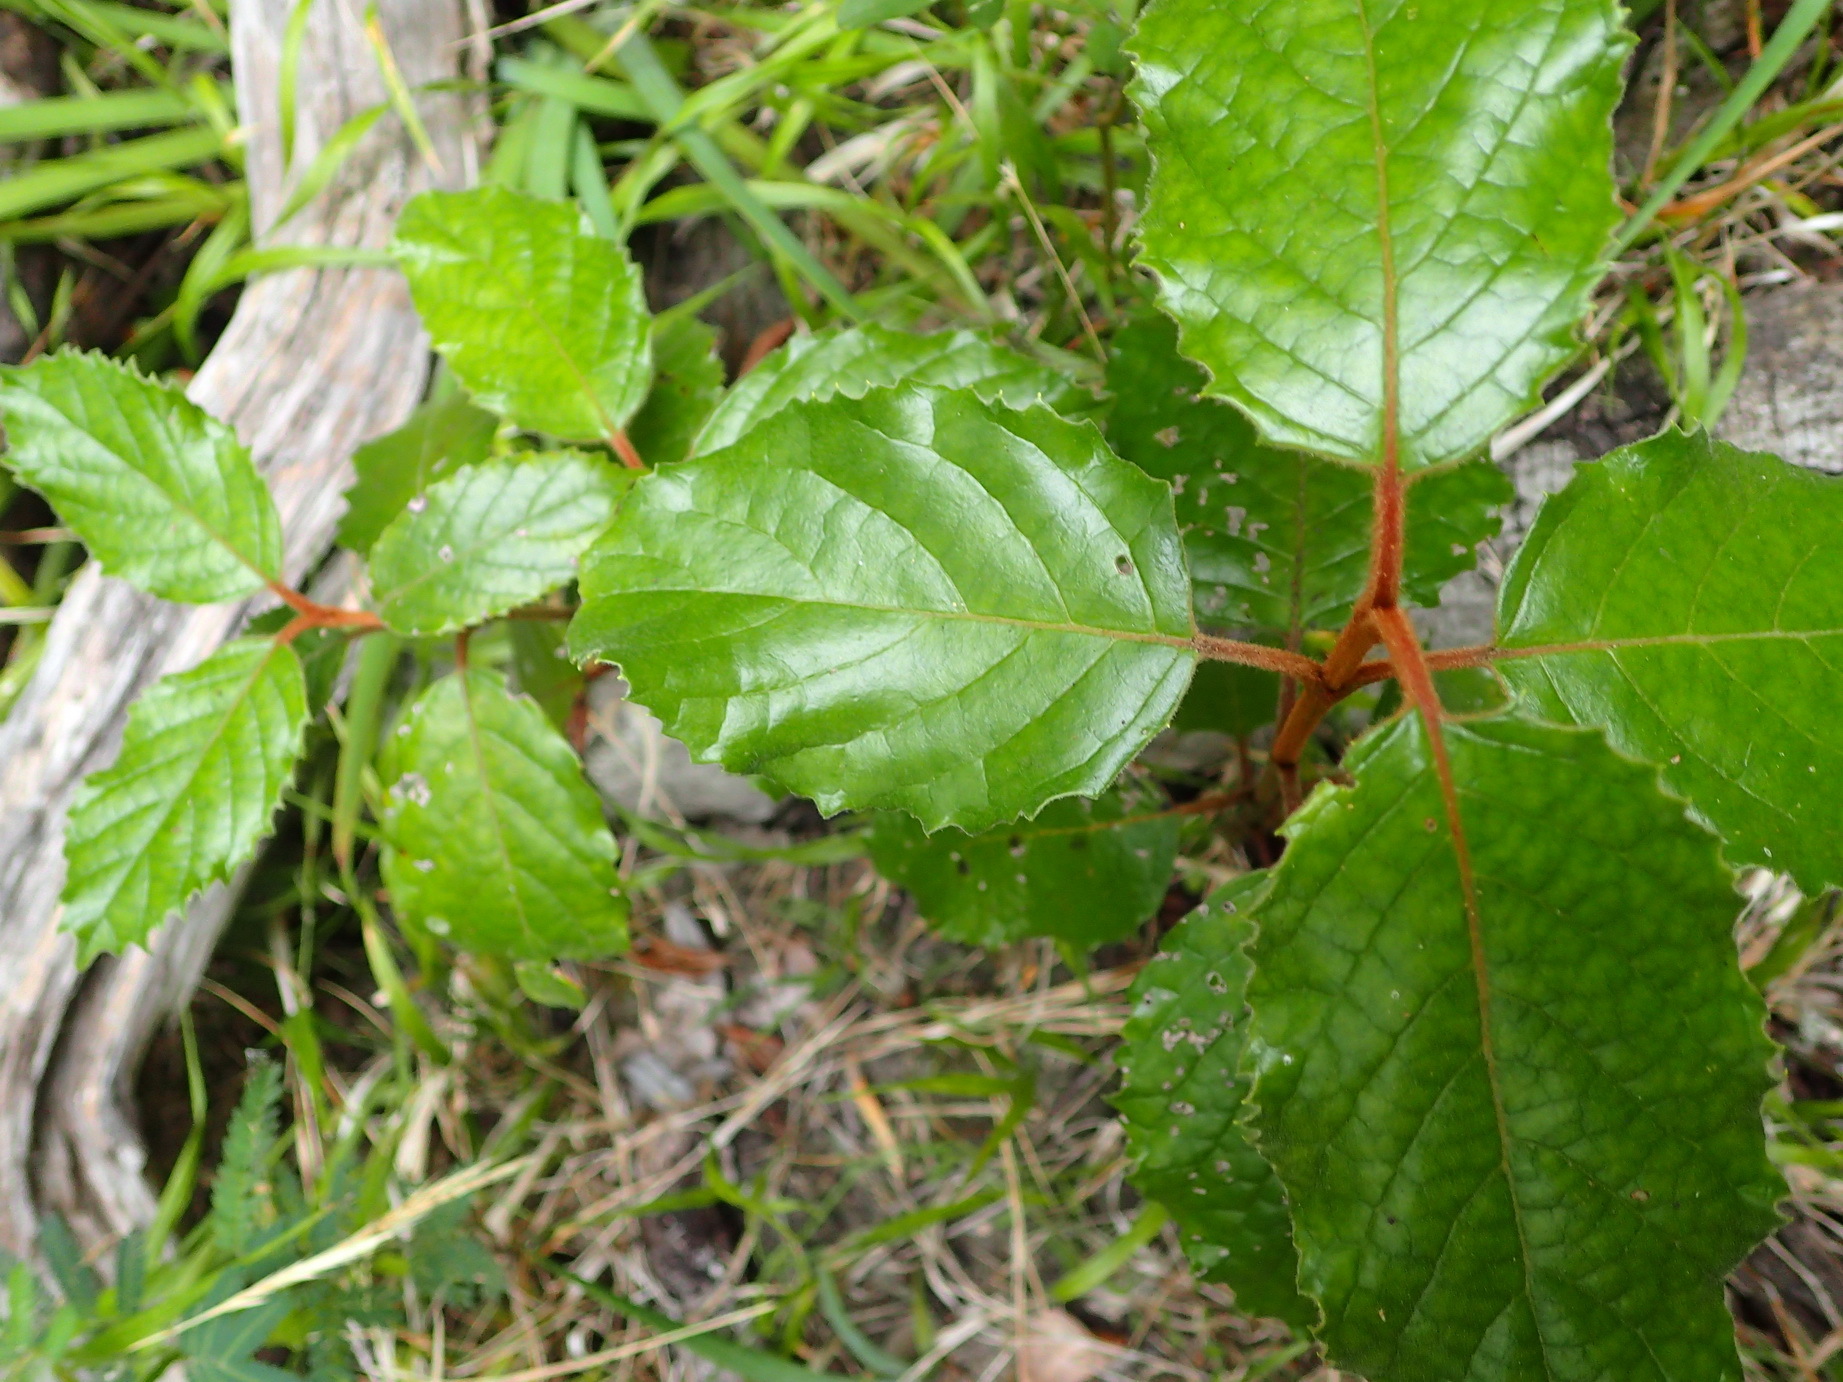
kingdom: Plantae
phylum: Tracheophyta
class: Magnoliopsida
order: Cornales
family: Curtisiaceae
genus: Curtisia
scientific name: Curtisia dentata
